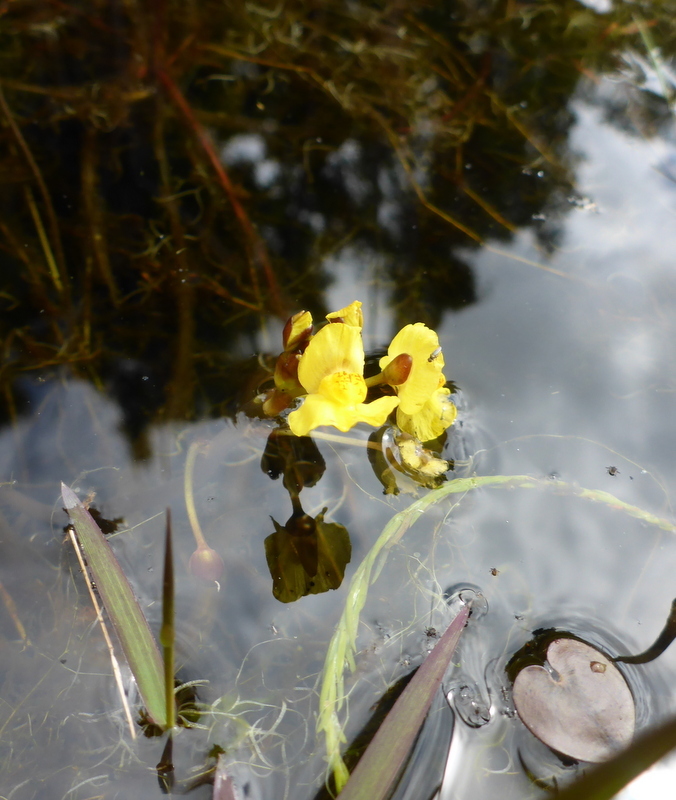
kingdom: Plantae
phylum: Tracheophyta
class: Magnoliopsida
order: Lamiales
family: Lentibulariaceae
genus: Utricularia
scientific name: Utricularia foliosa
